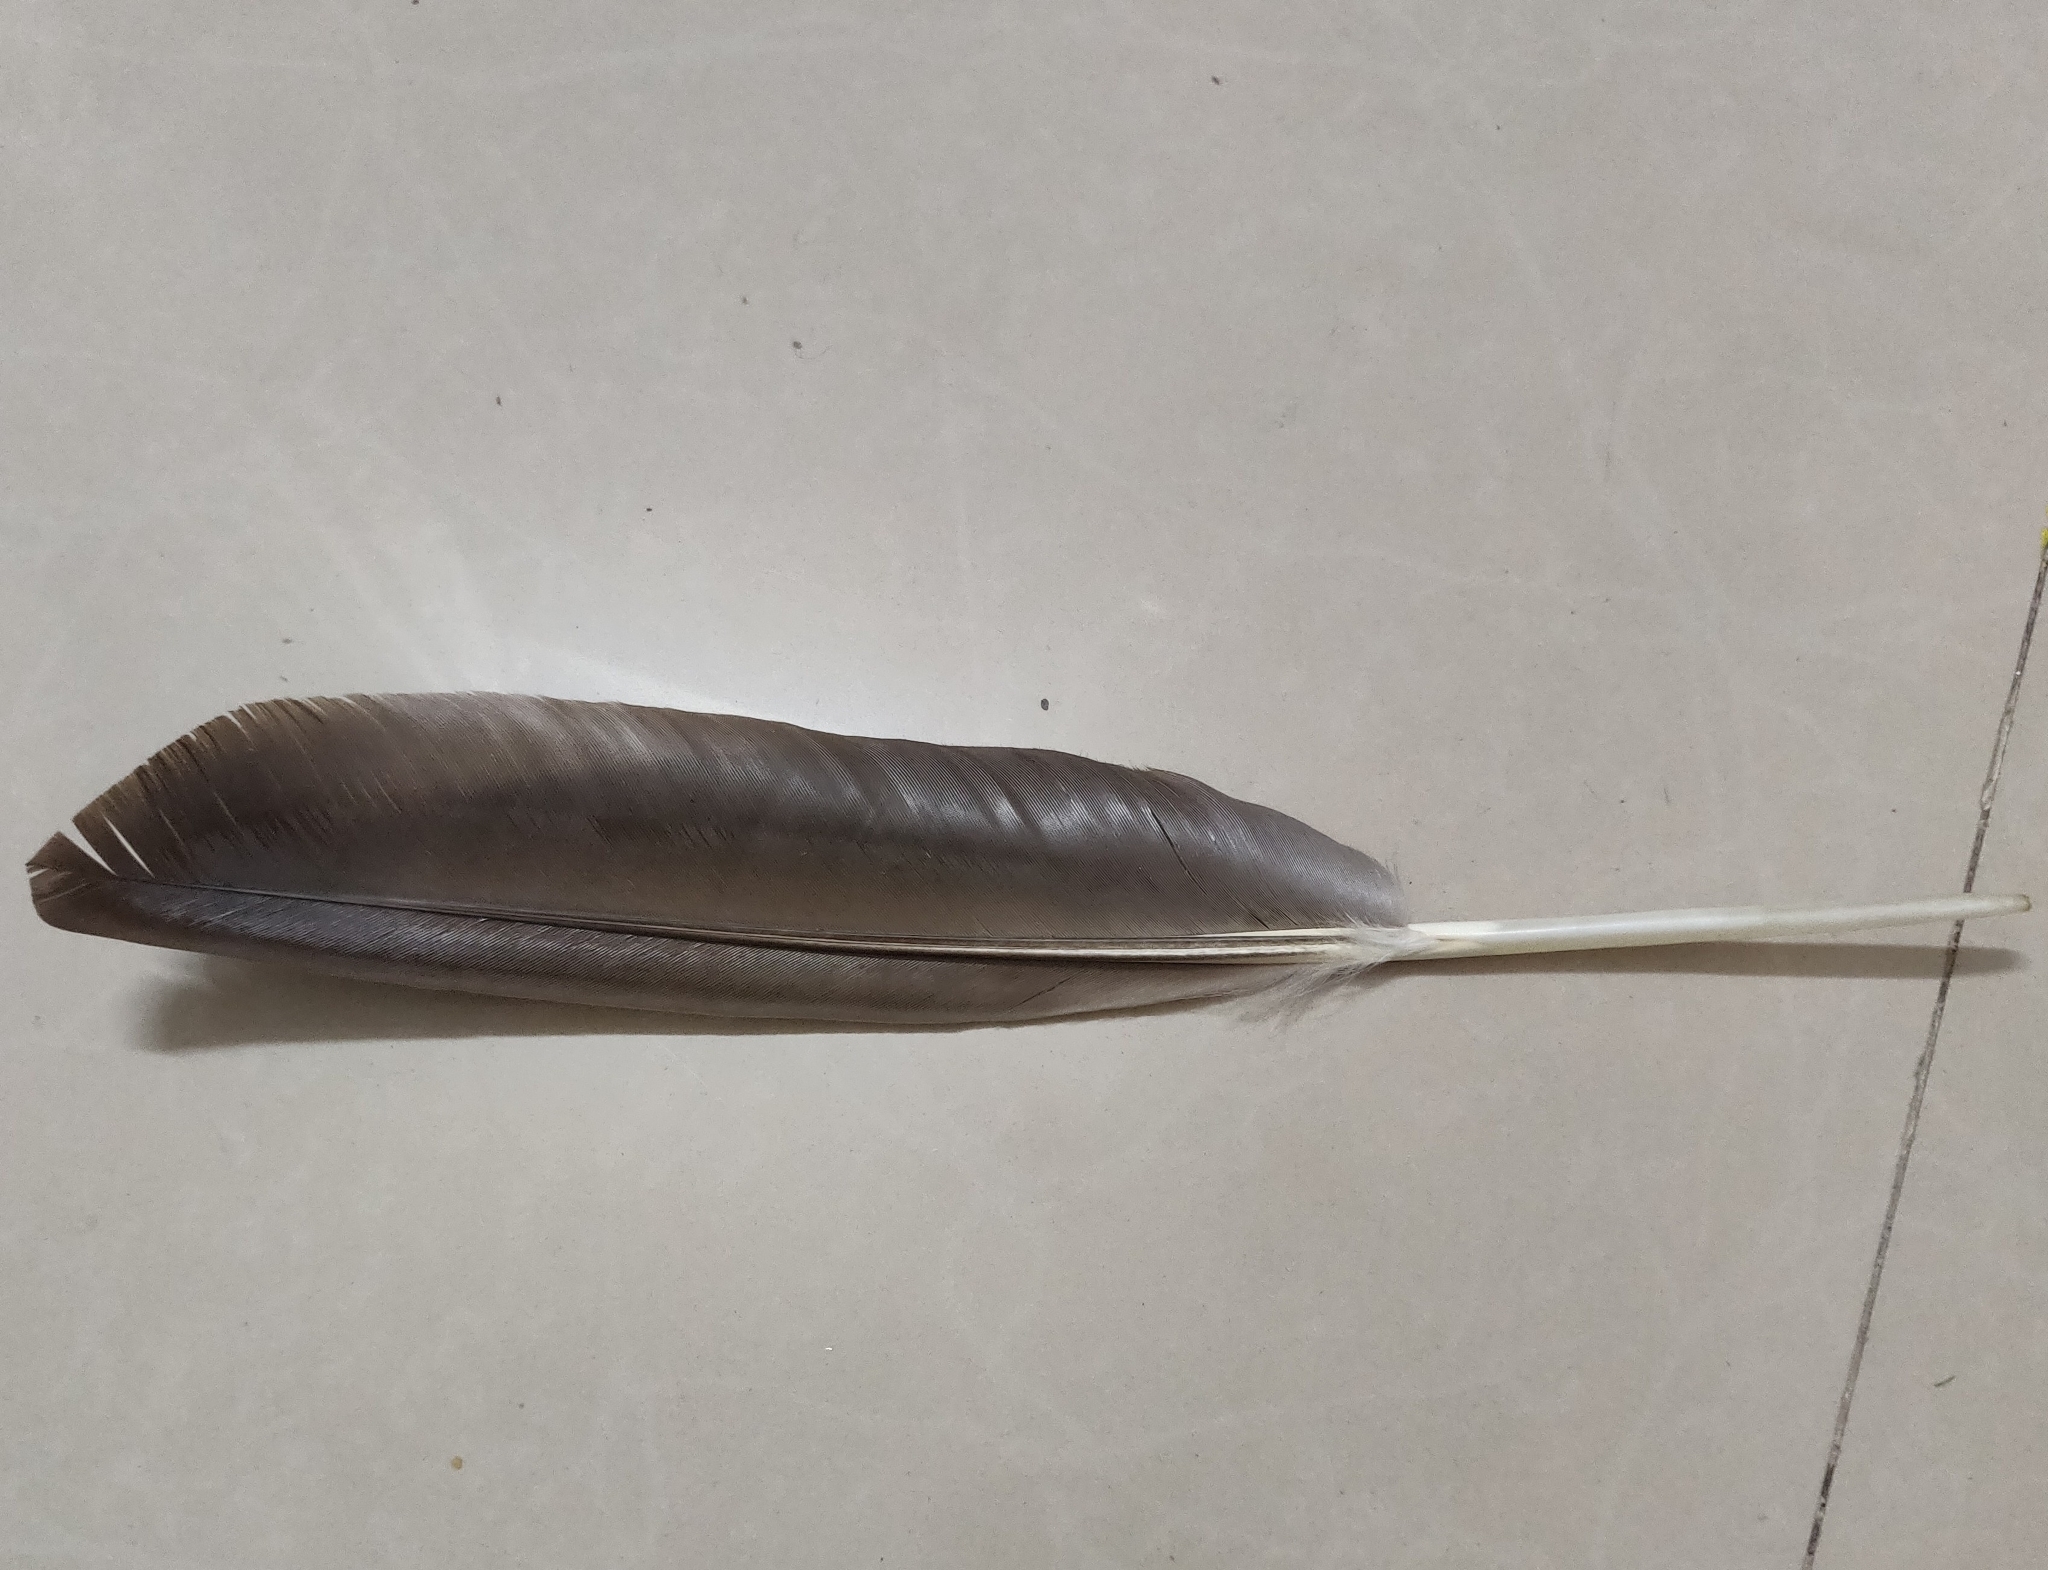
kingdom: Animalia
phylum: Chordata
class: Aves
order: Anseriformes
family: Anatidae
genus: Branta
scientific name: Branta canadensis
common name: Canada goose
